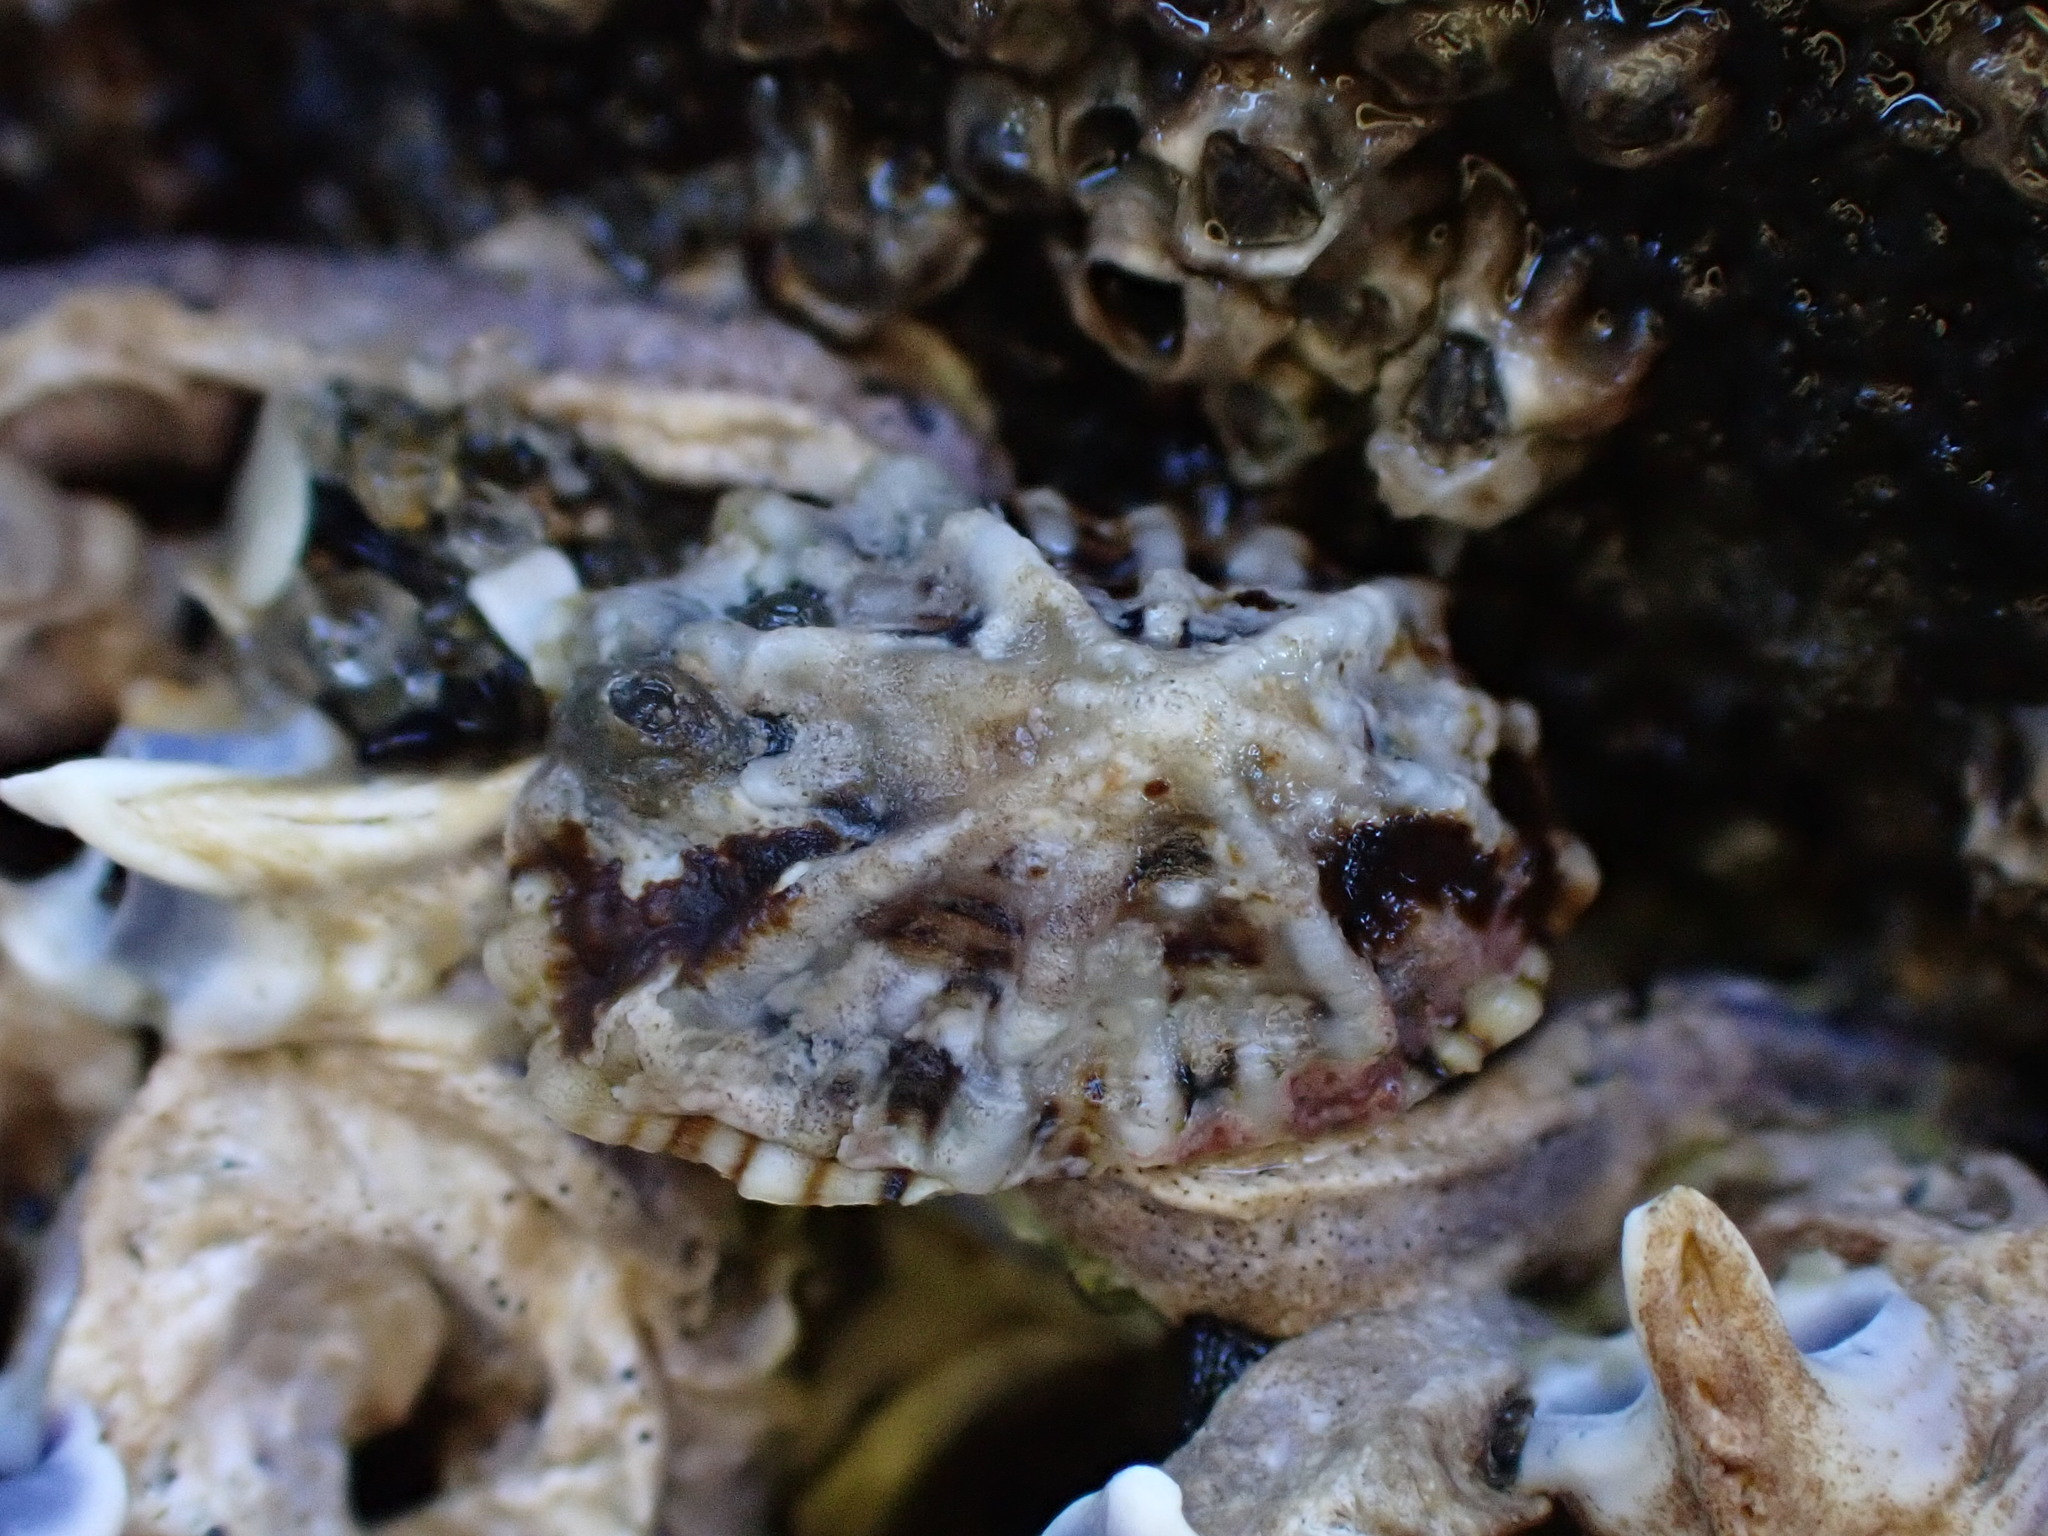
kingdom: Animalia
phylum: Mollusca
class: Gastropoda
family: Lottiidae
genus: Patelloida
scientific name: Patelloida corticata
